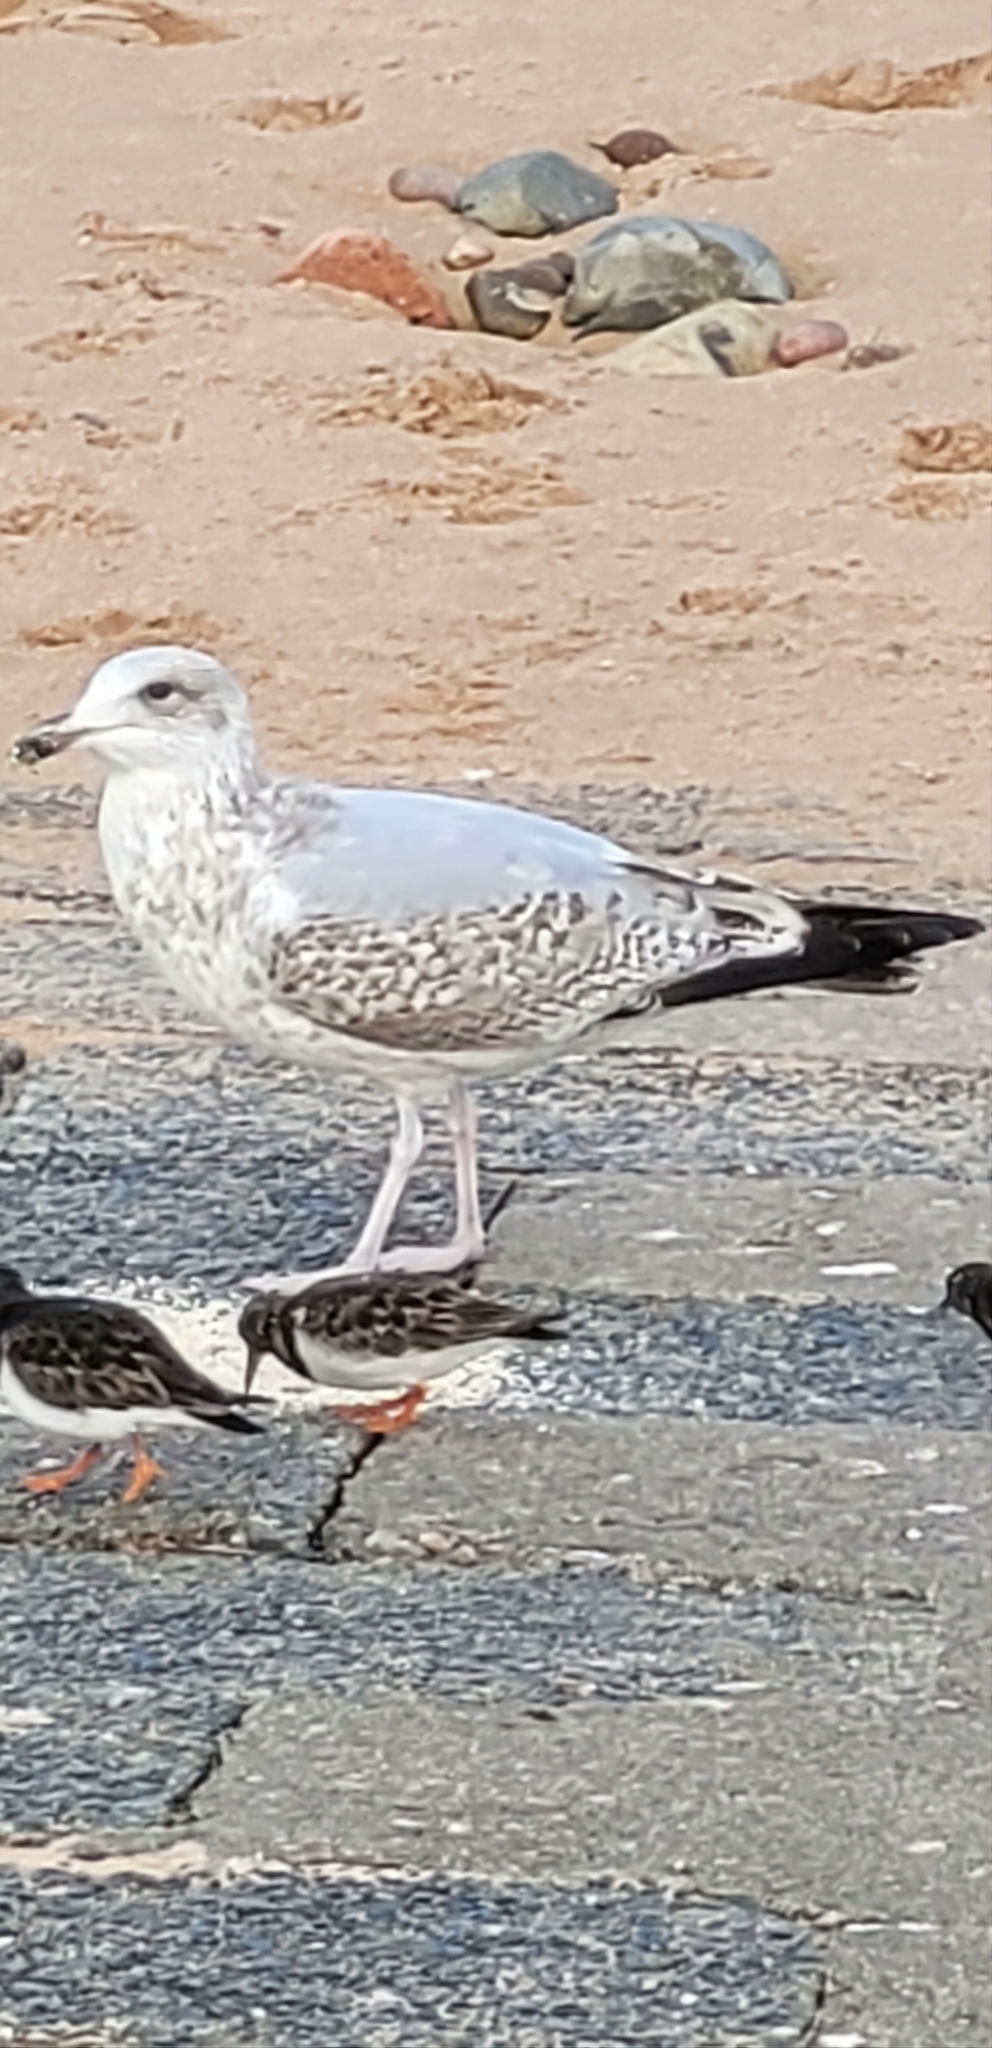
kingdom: Animalia
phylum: Chordata
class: Aves
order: Charadriiformes
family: Laridae
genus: Larus
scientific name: Larus argentatus
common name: Herring gull
